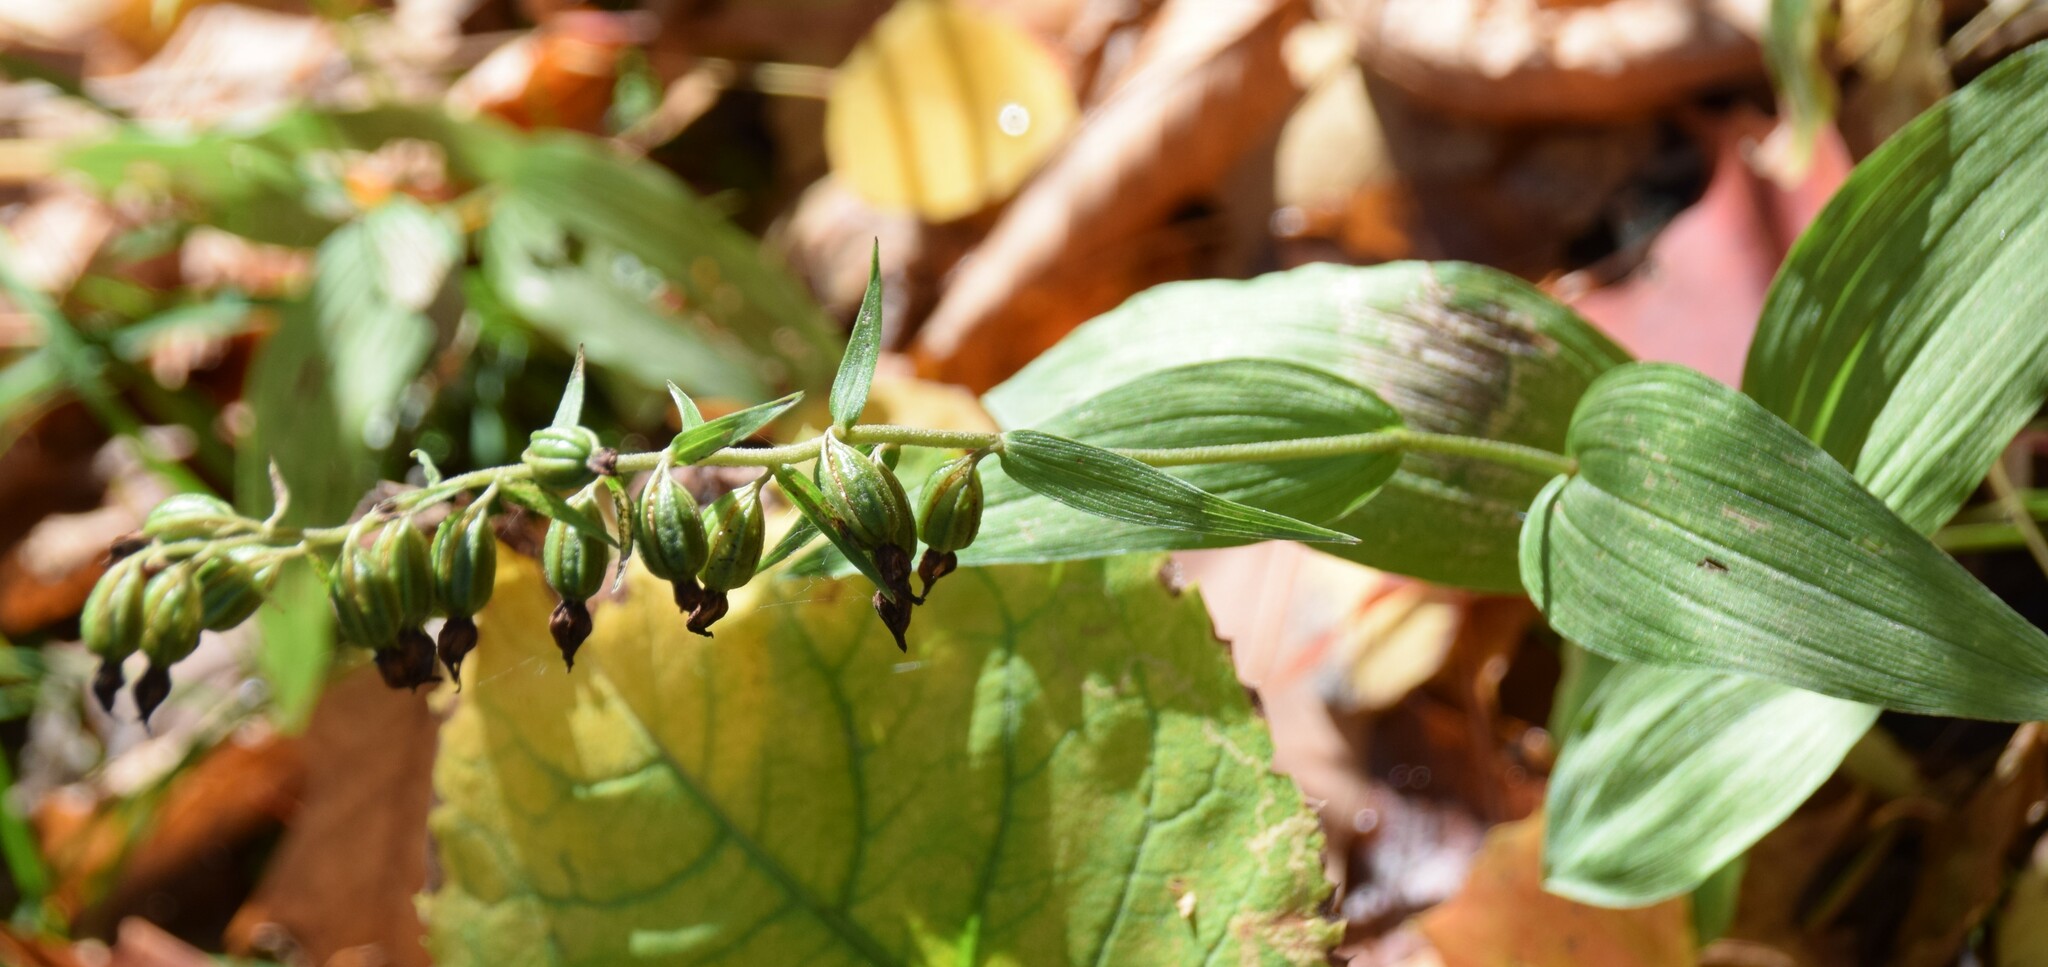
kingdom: Plantae
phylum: Tracheophyta
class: Liliopsida
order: Asparagales
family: Orchidaceae
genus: Epipactis
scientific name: Epipactis helleborine
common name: Broad-leaved helleborine
